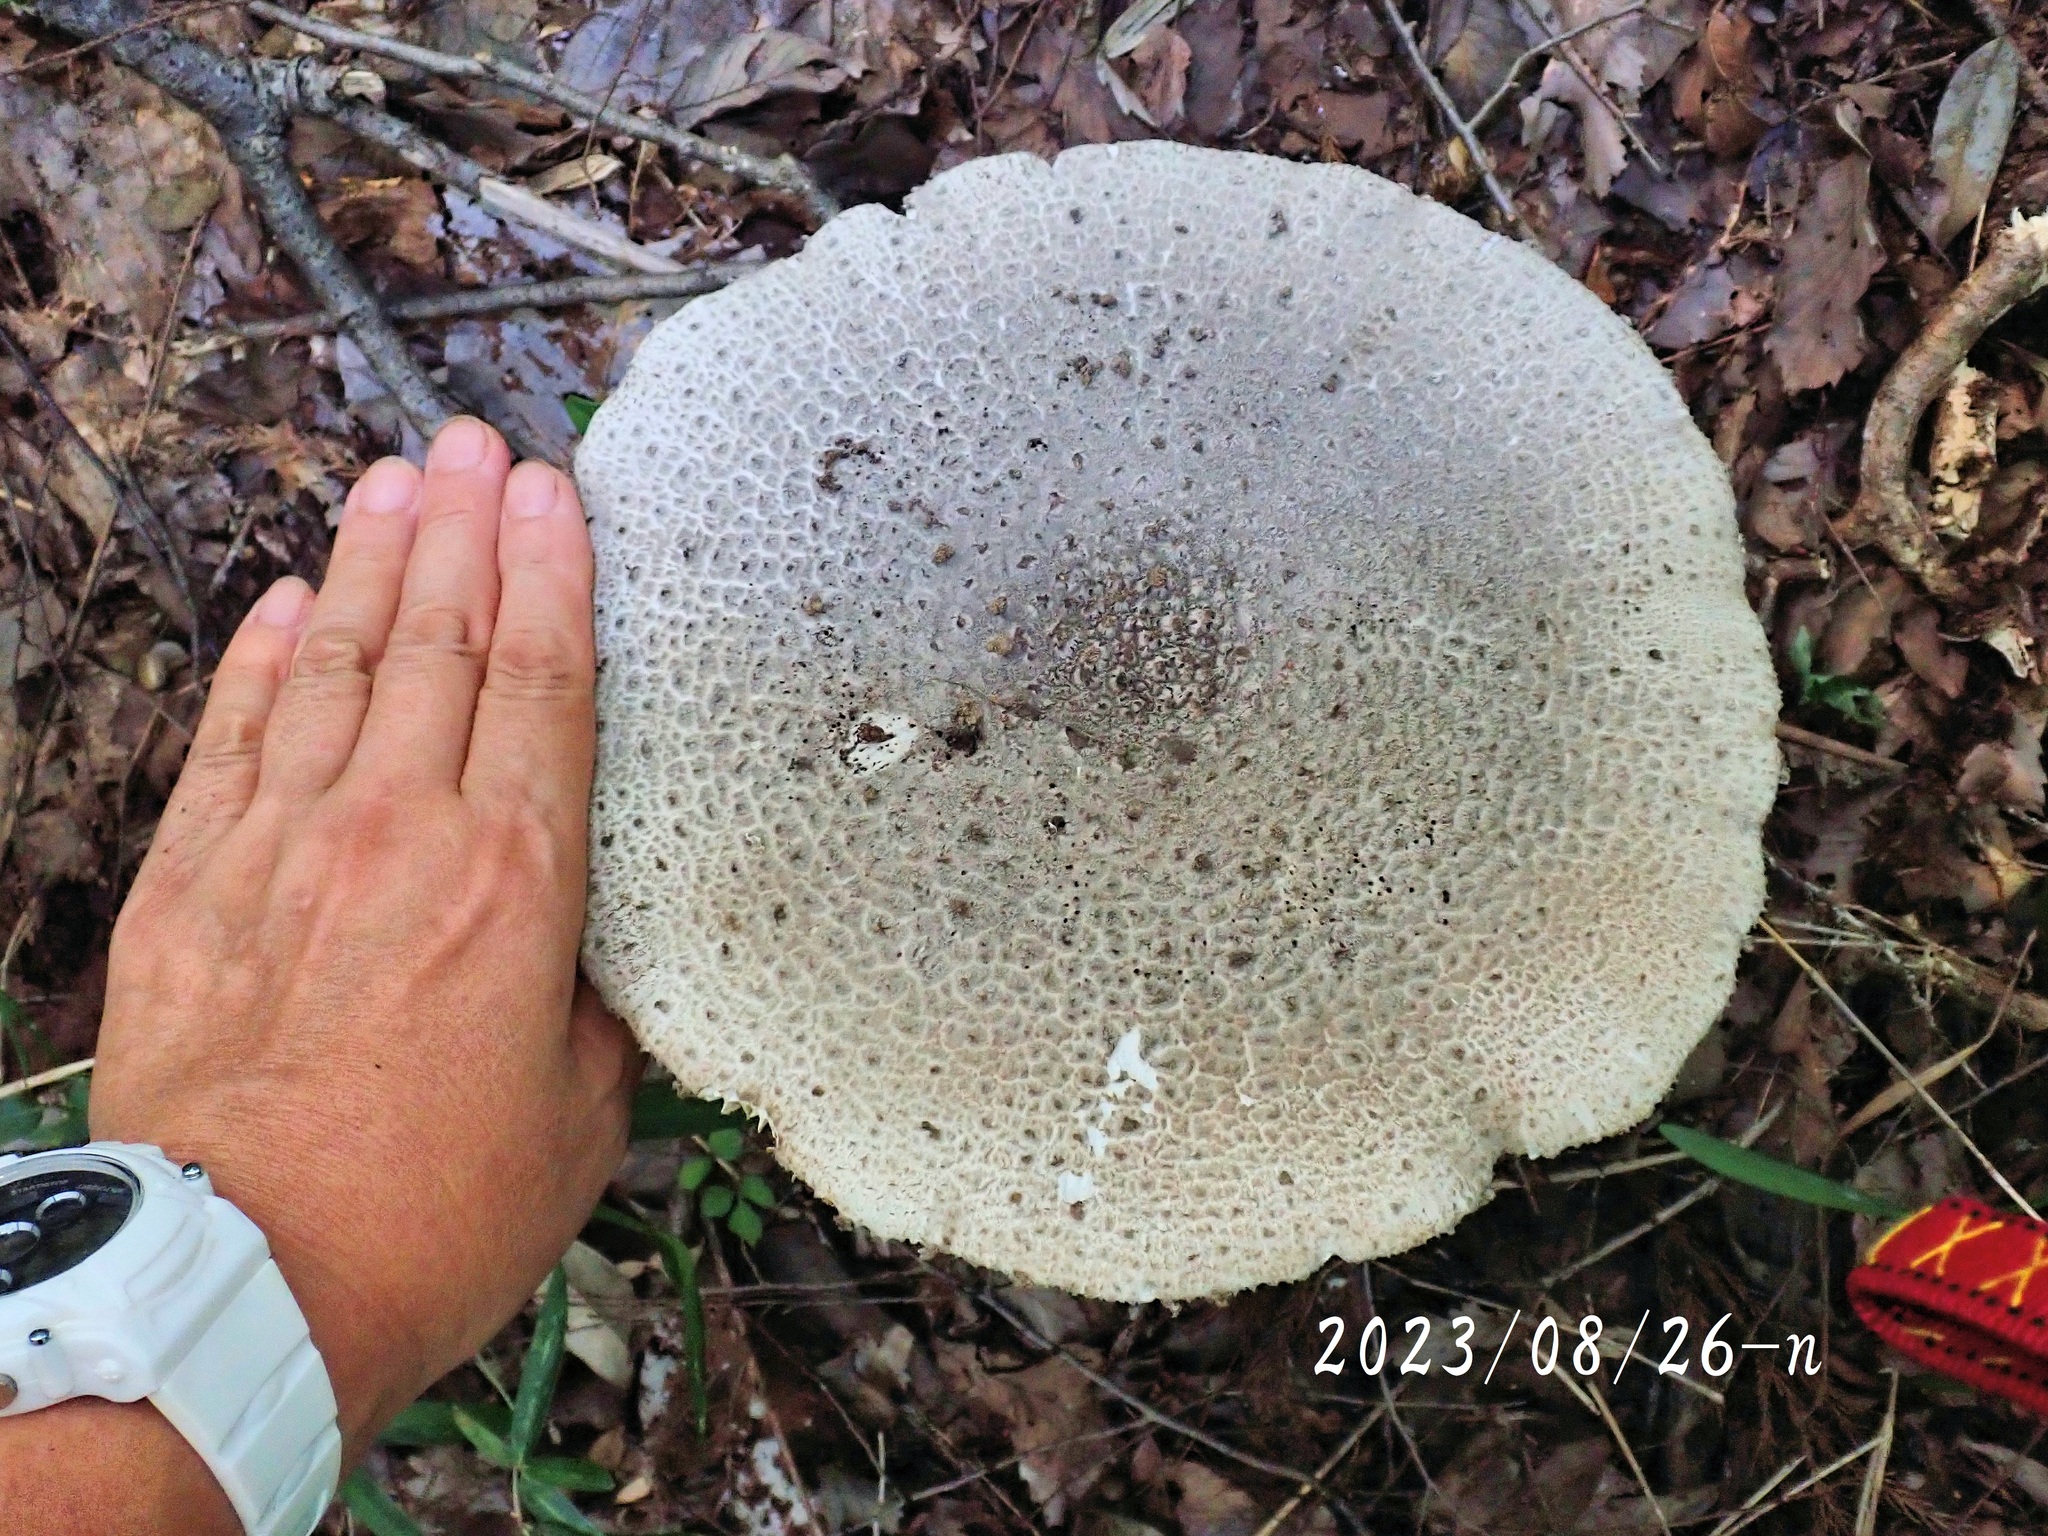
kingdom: Fungi
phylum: Basidiomycota
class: Agaricomycetes
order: Agaricales
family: Amanitaceae
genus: Amanita
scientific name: Amanita sinensis
